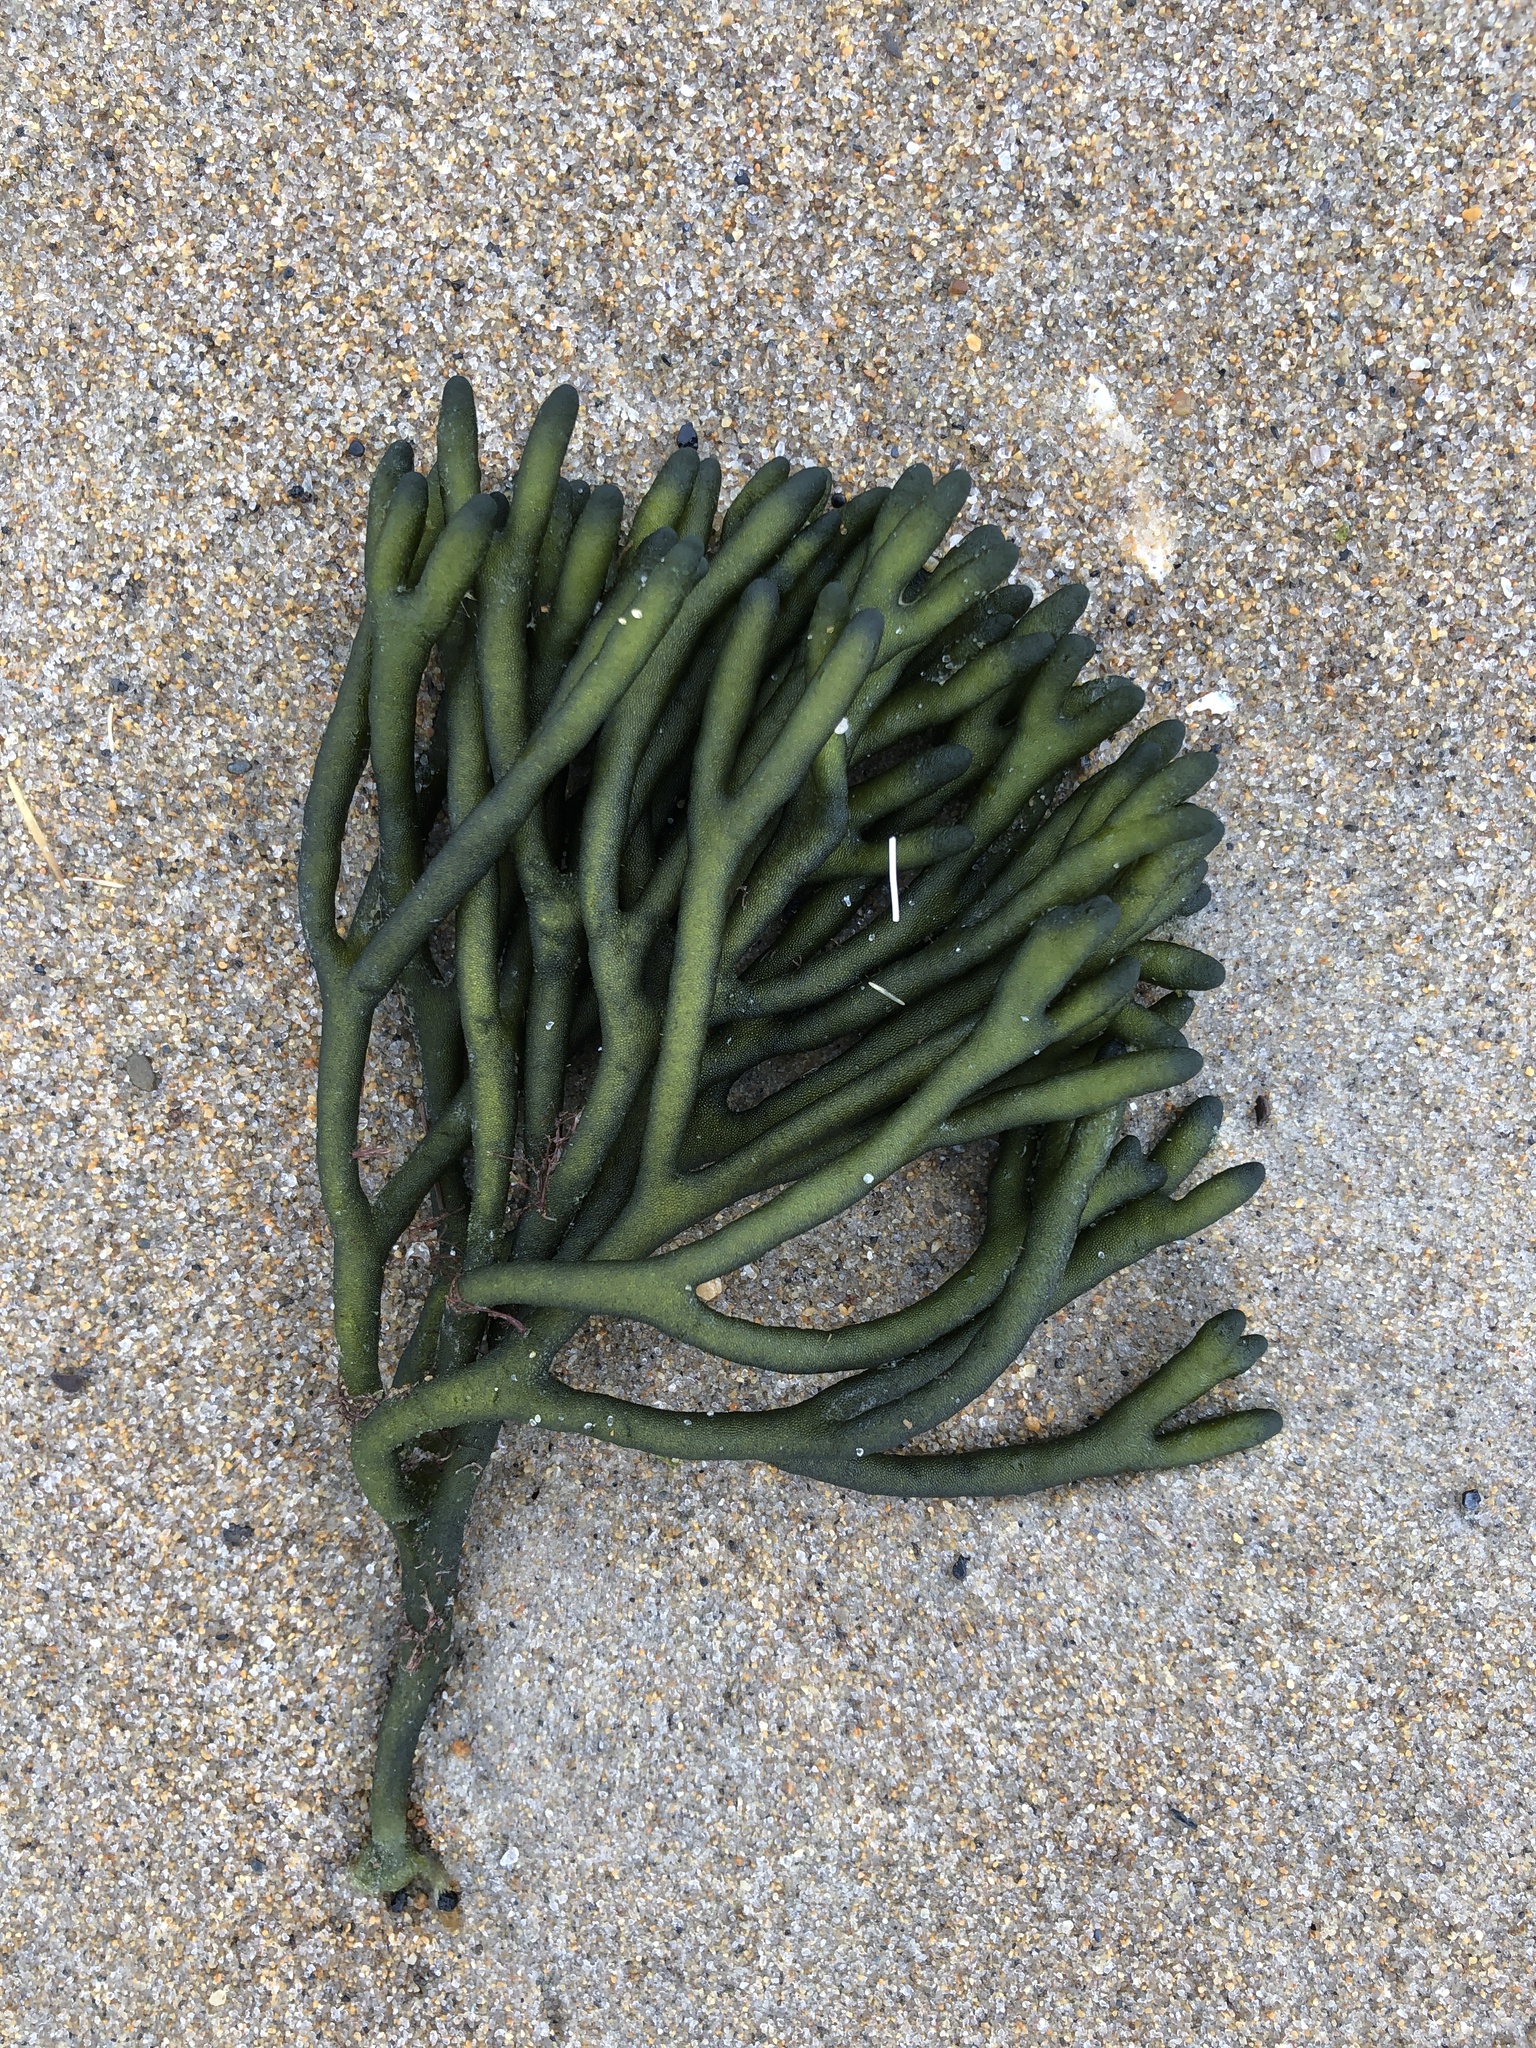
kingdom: Plantae
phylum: Chlorophyta
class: Ulvophyceae
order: Bryopsidales
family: Codiaceae
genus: Codium
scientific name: Codium fragile
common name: Dead man's fingers
